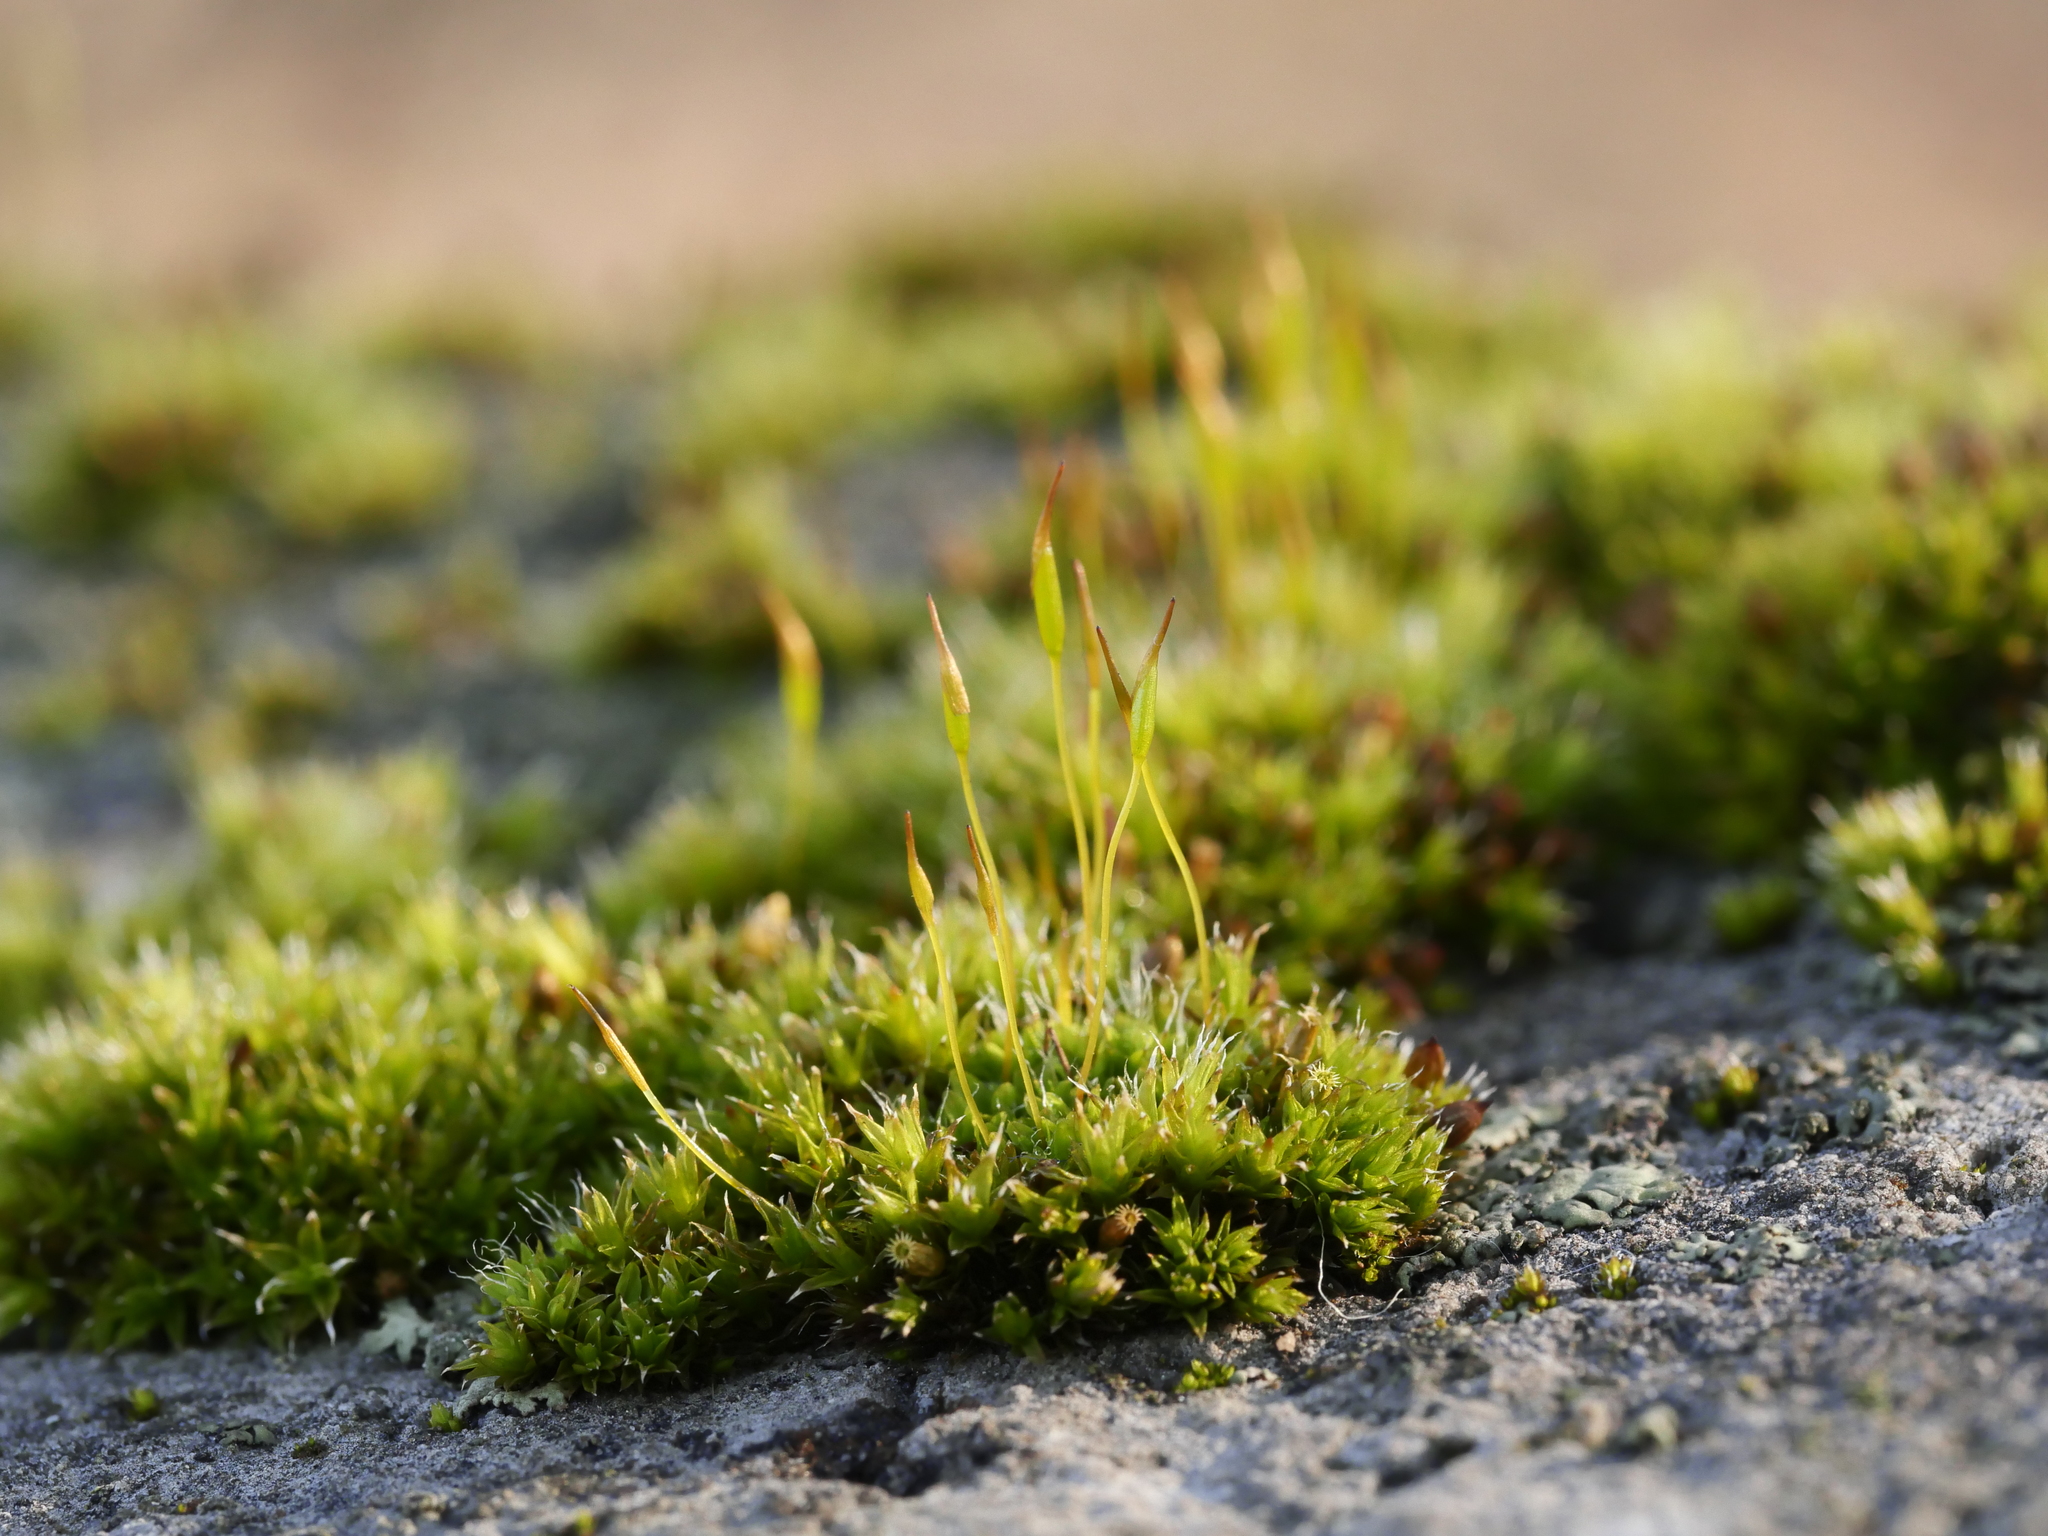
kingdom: Plantae
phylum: Bryophyta
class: Bryopsida
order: Pottiales
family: Pottiaceae
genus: Tortula
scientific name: Tortula muralis
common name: Wall screw-moss
